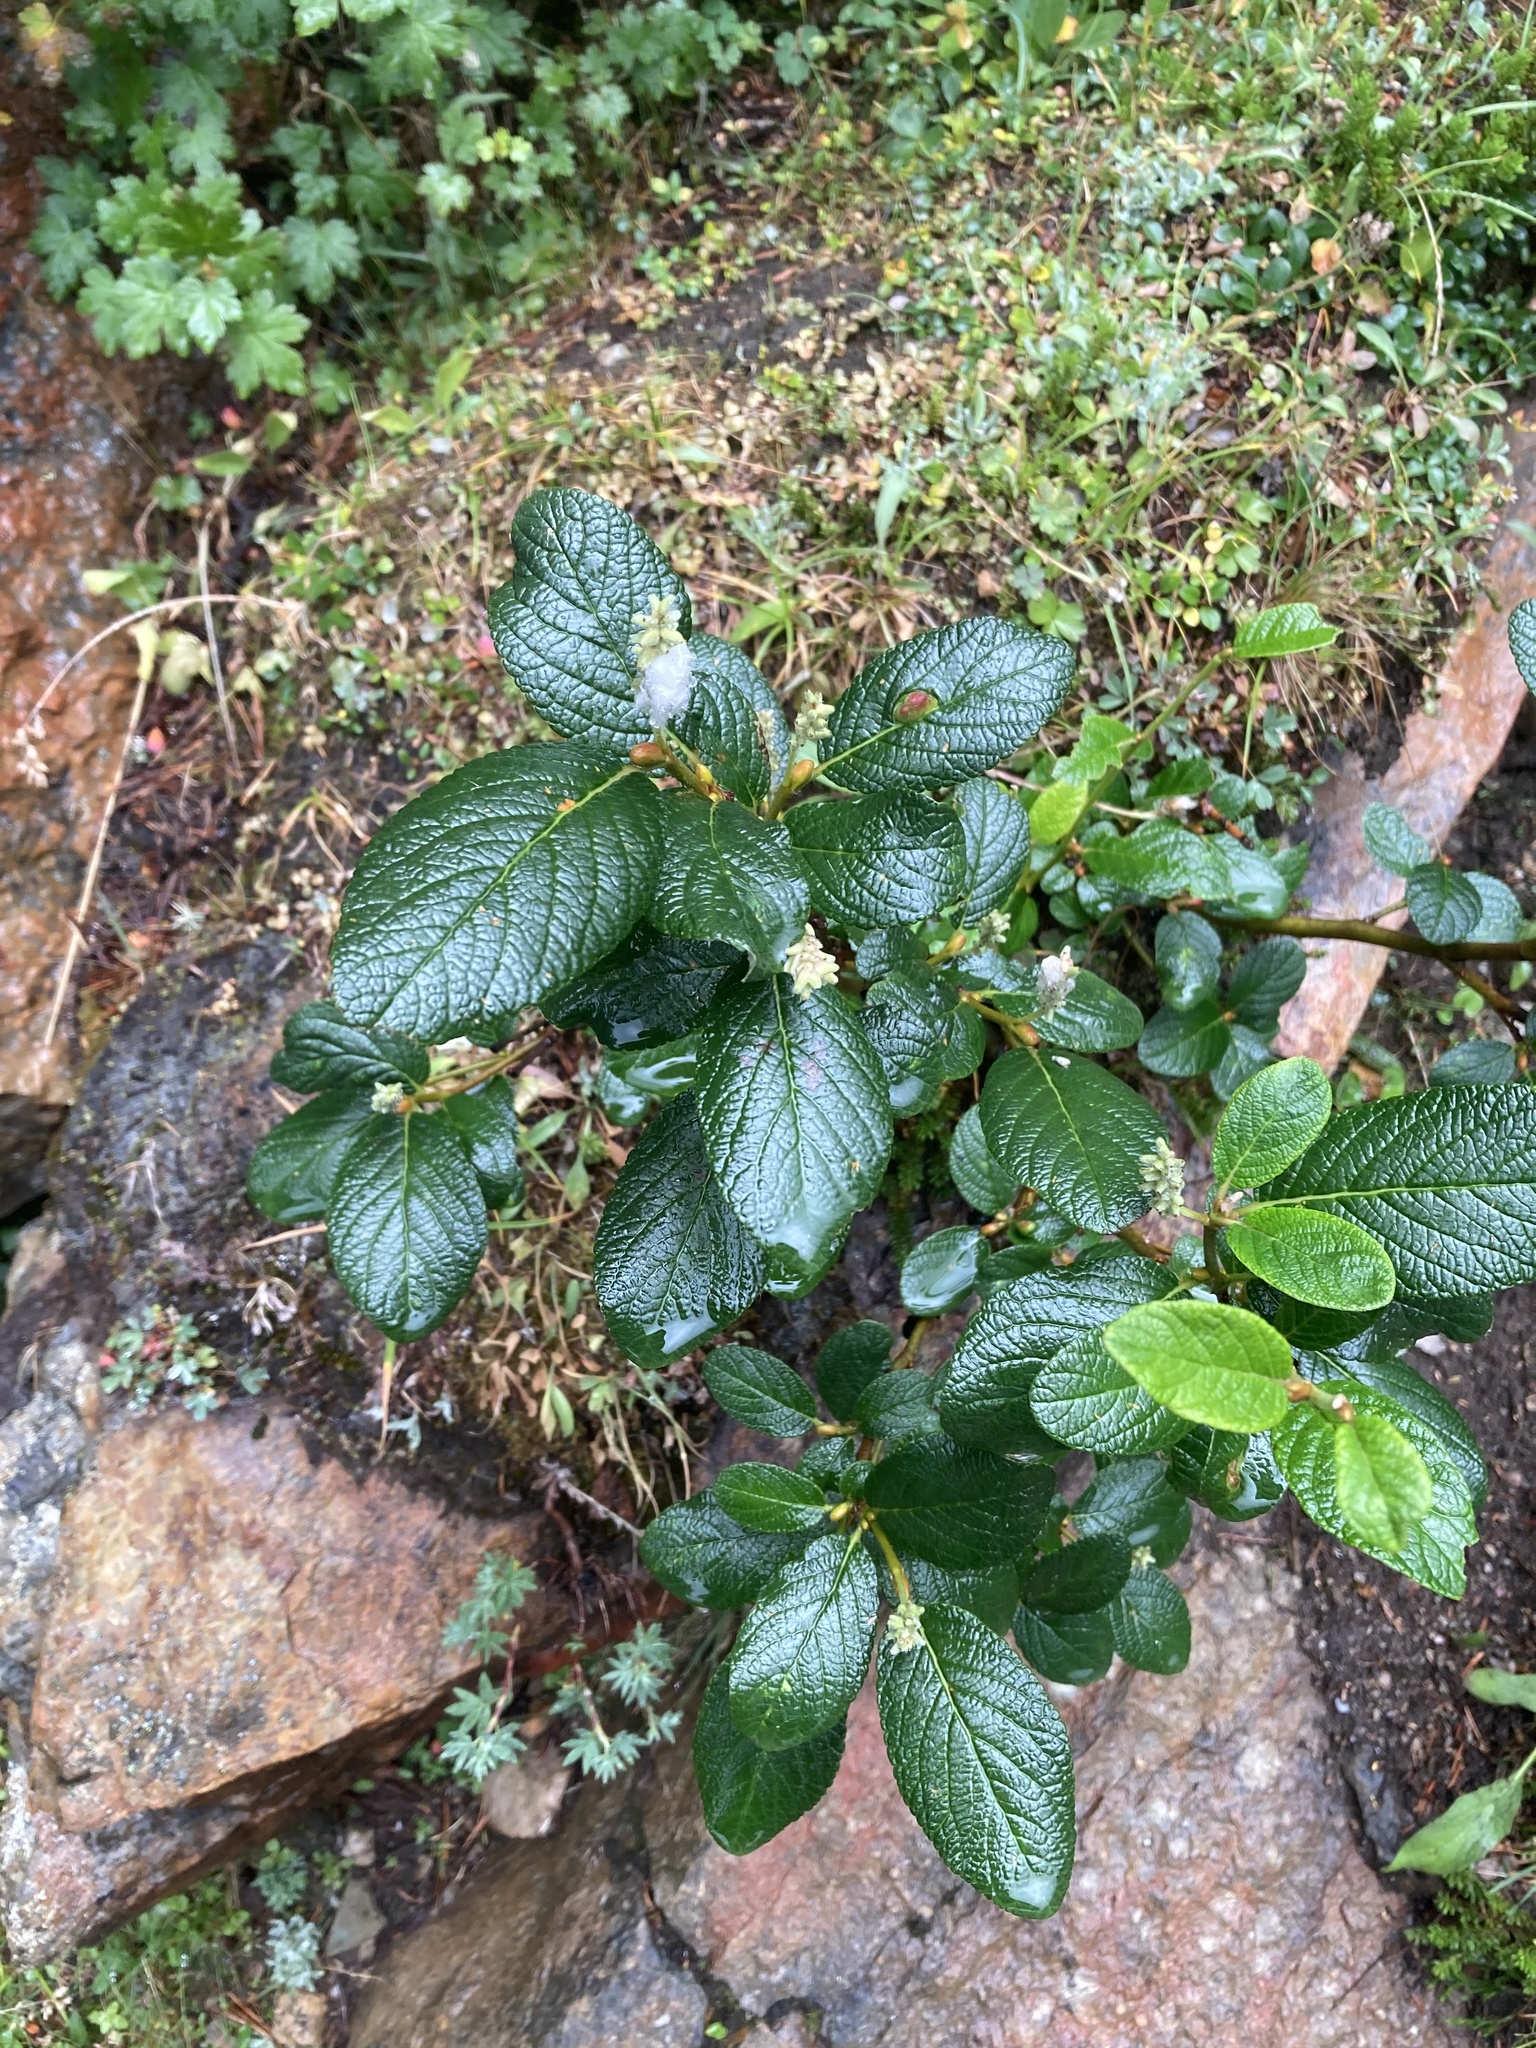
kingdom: Plantae
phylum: Tracheophyta
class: Magnoliopsida
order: Malpighiales
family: Salicaceae
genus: Salix
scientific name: Salix vestita
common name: Hairy willow
